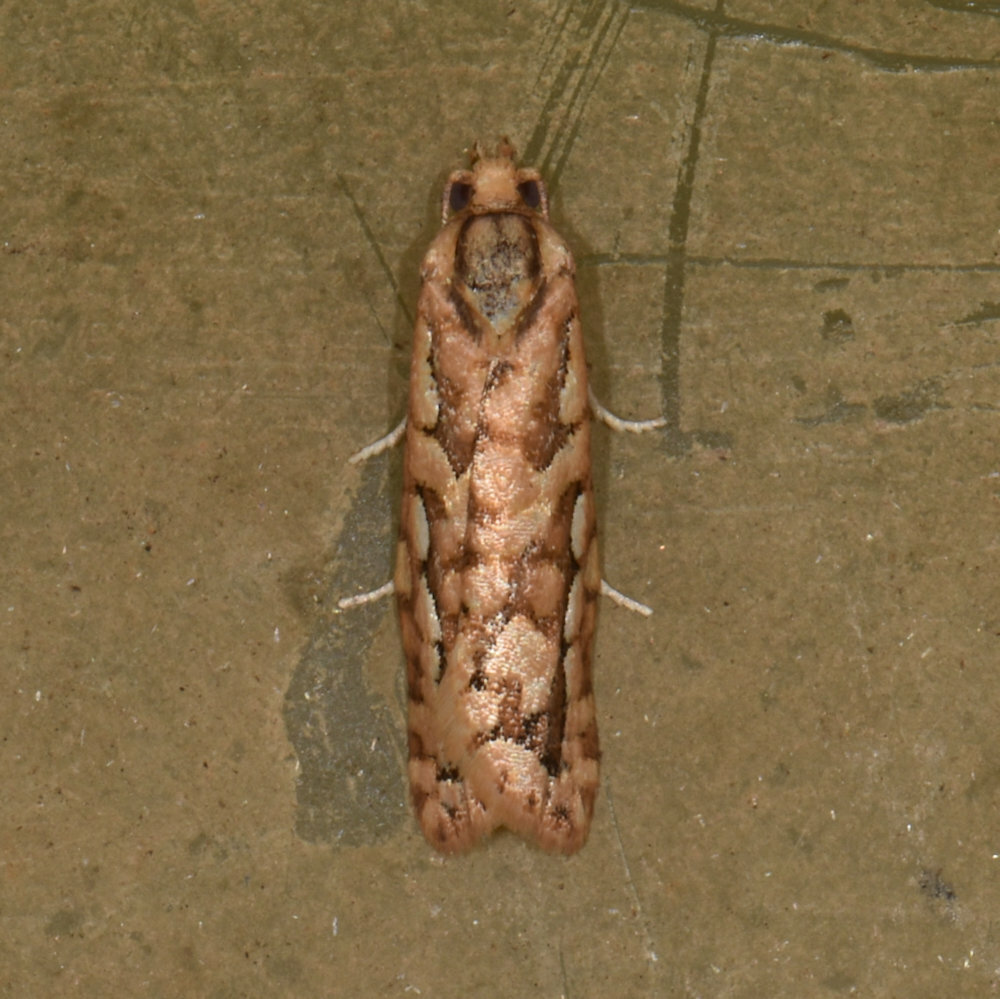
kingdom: Animalia
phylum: Arthropoda
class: Insecta
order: Lepidoptera
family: Tortricidae
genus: Diedra
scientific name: Diedra cockerellana
